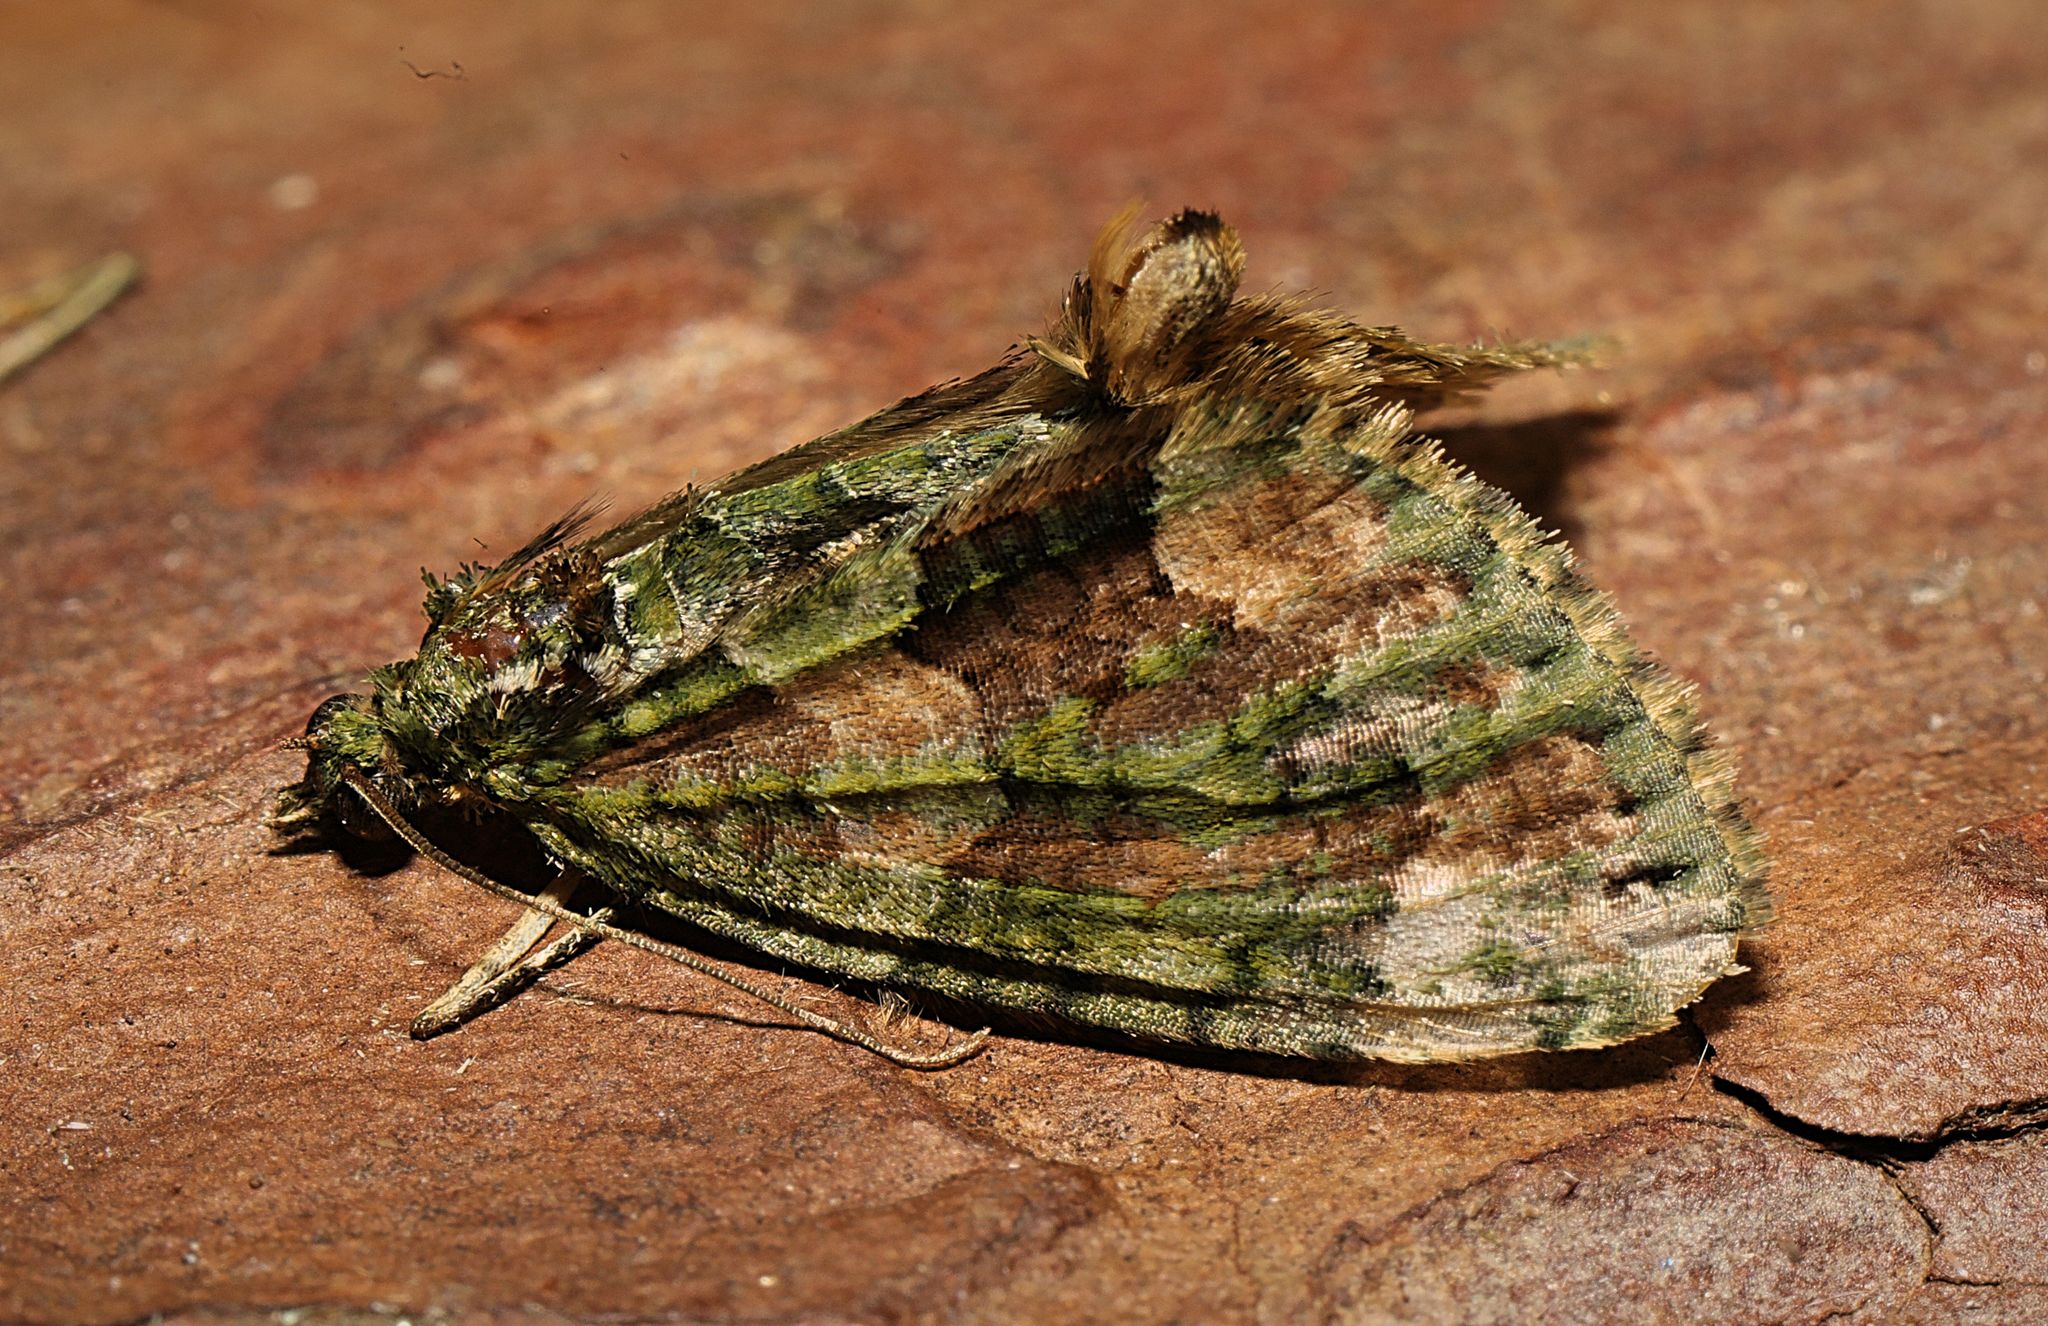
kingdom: Animalia
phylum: Arthropoda
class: Insecta
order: Lepidoptera
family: Geometridae
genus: Chloroclysta
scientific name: Chloroclysta siterata
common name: Red-green carpet
